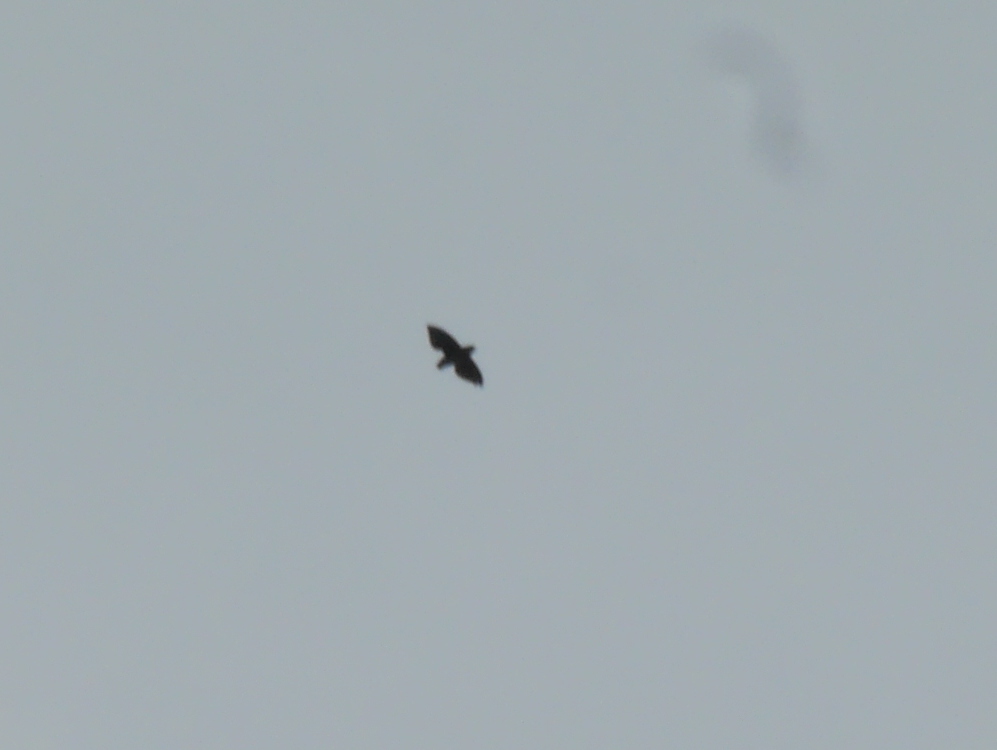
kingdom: Animalia
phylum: Chordata
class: Aves
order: Apodiformes
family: Apodidae
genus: Neafrapus
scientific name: Neafrapus cassini
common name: Cassin's spinetail
